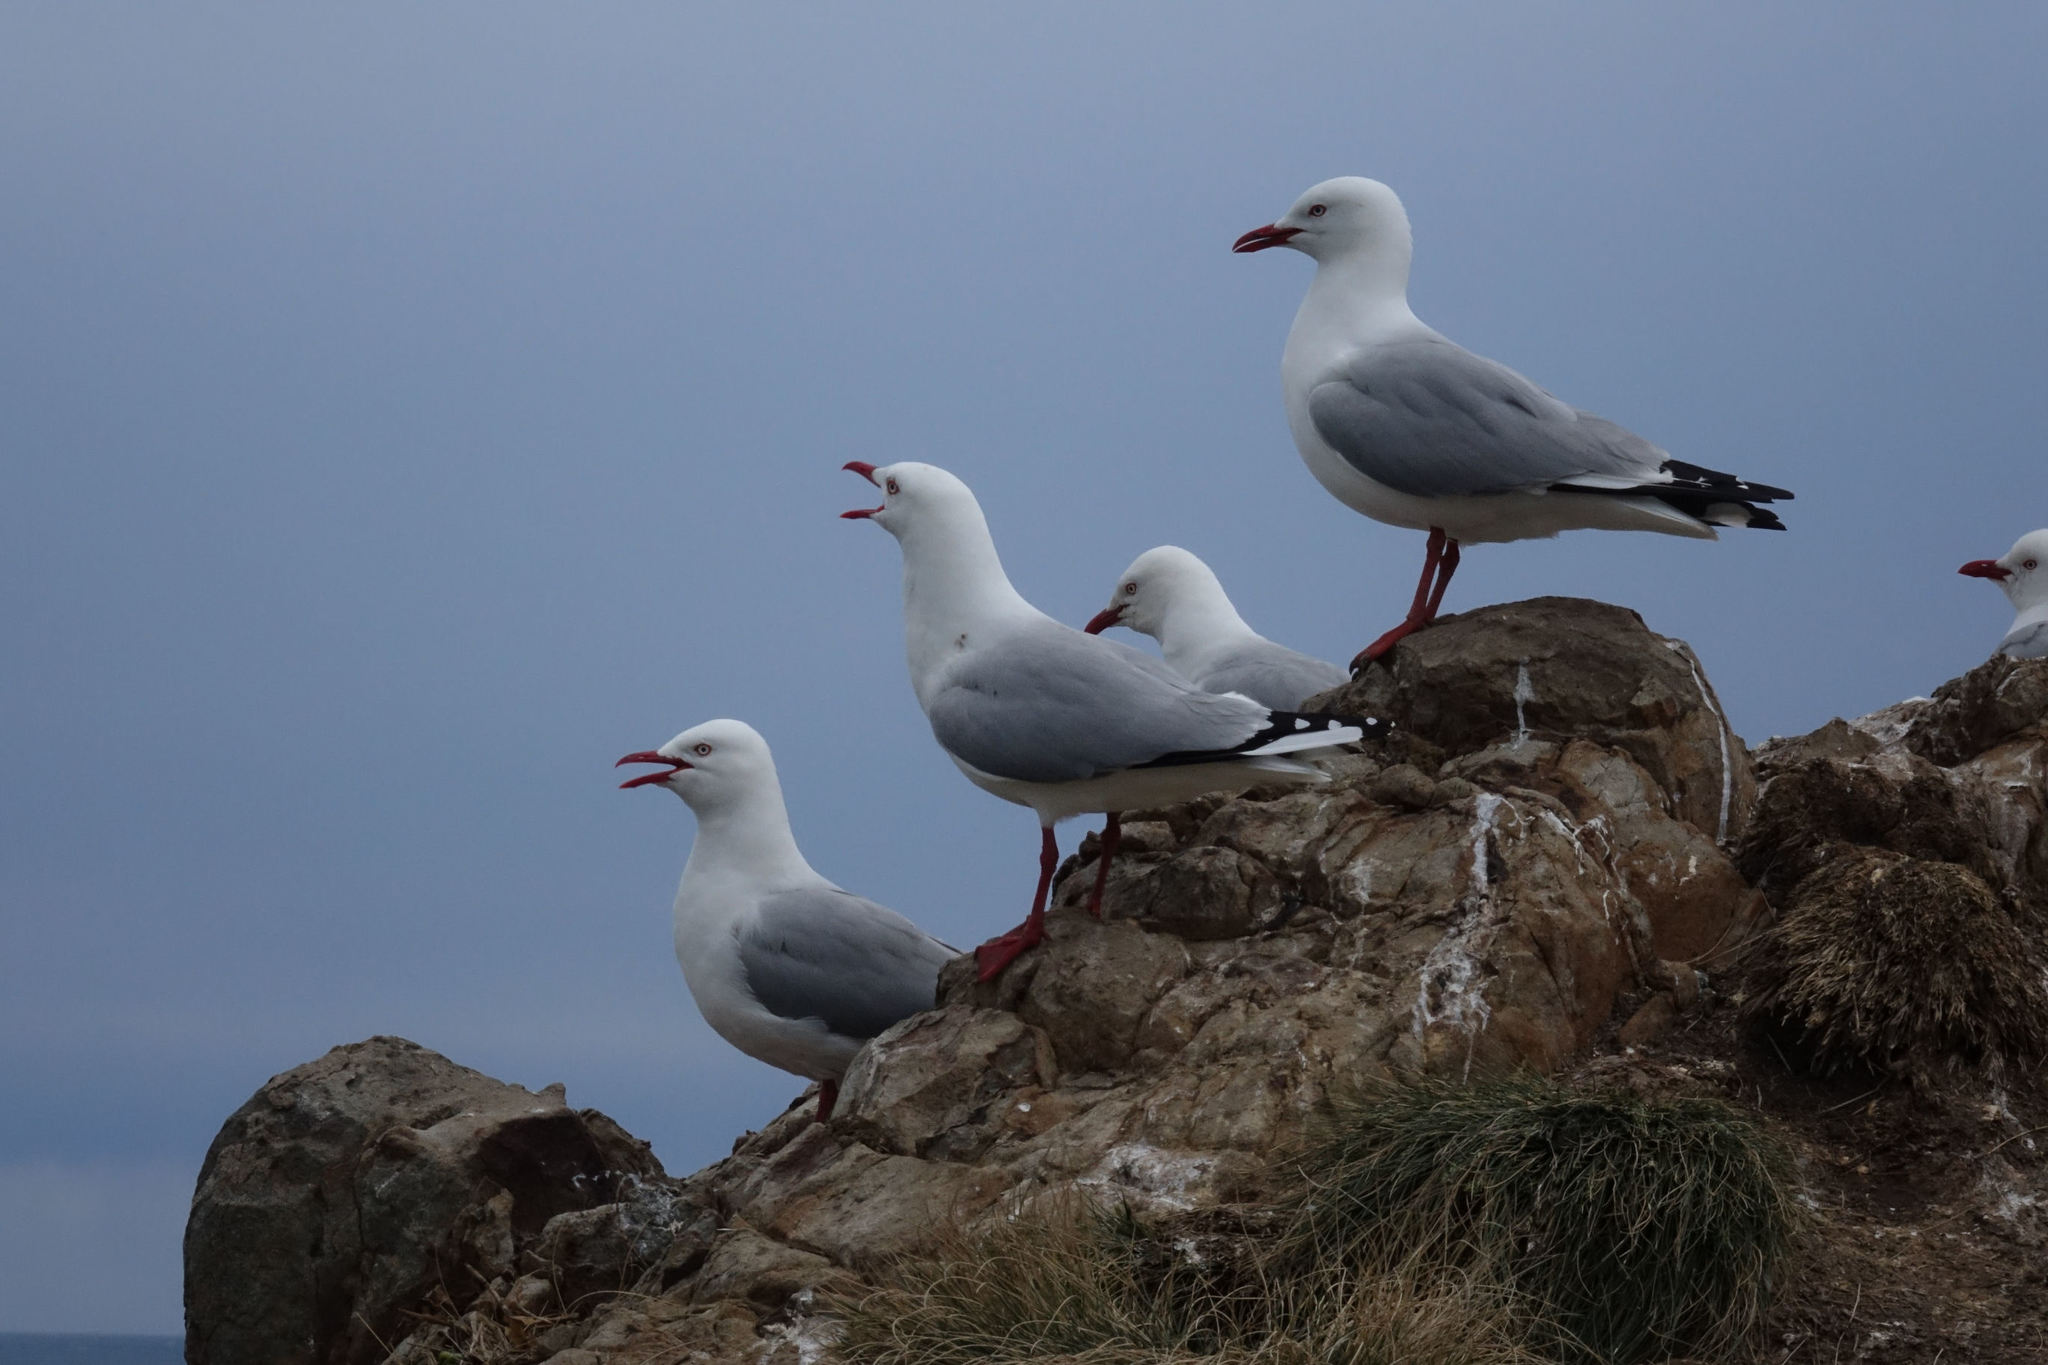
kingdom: Animalia
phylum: Chordata
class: Aves
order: Charadriiformes
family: Laridae
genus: Chroicocephalus
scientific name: Chroicocephalus novaehollandiae
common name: Silver gull
